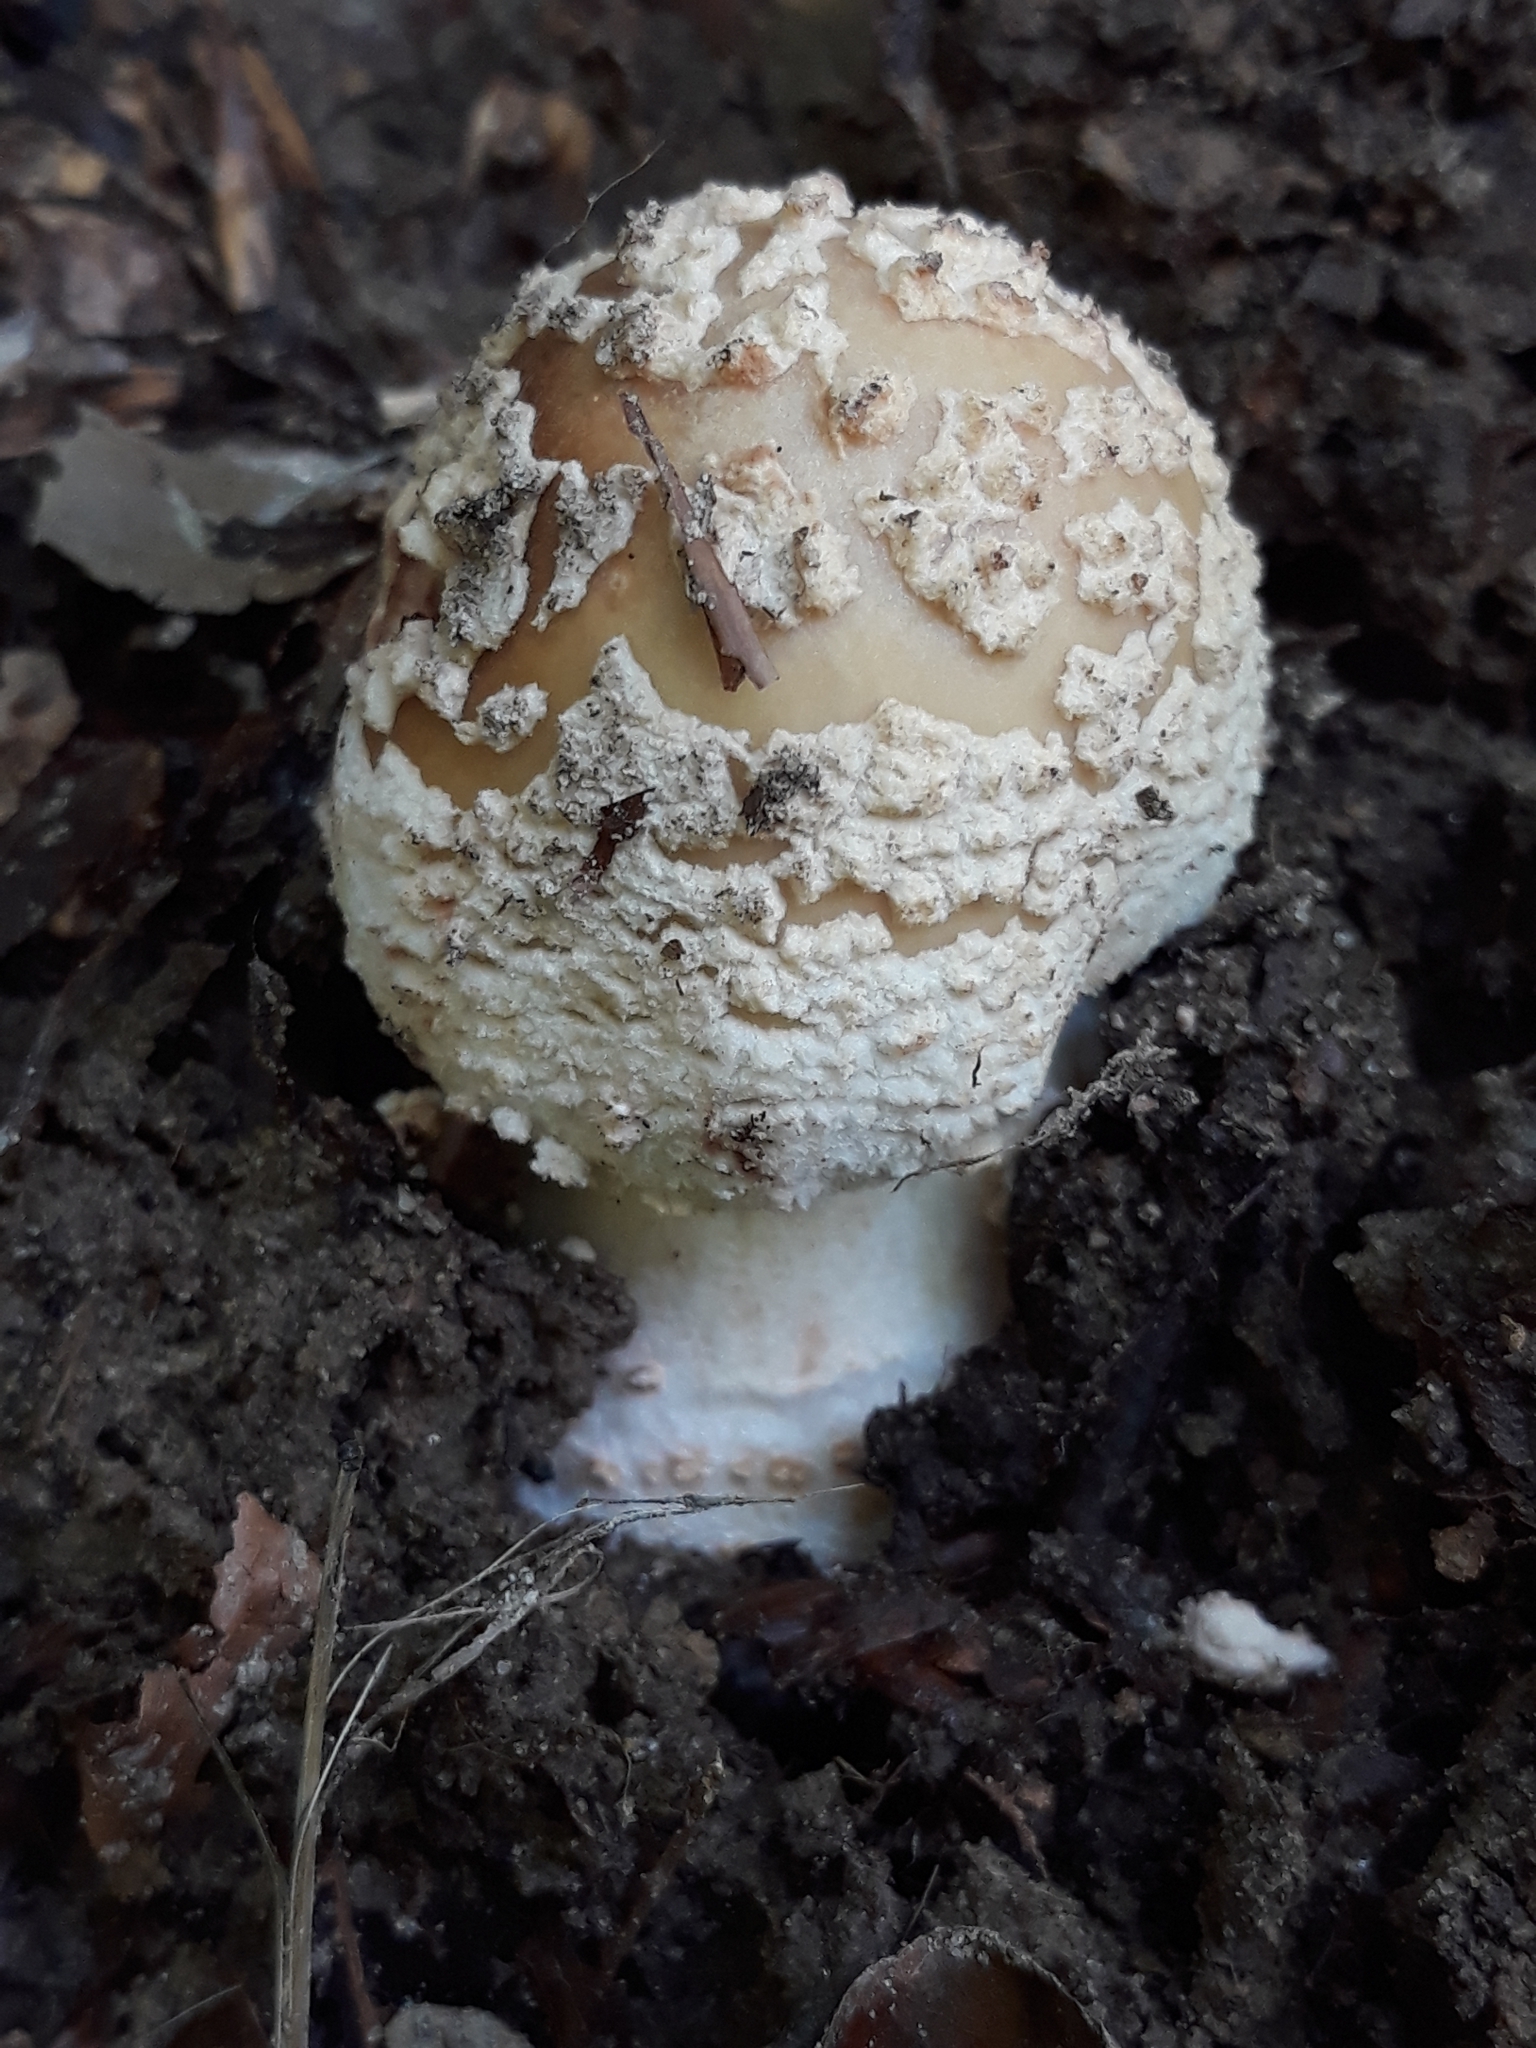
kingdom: Fungi
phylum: Basidiomycota
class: Agaricomycetes
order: Agaricales
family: Amanitaceae
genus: Amanita
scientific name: Amanita rubescens
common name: Blusher
